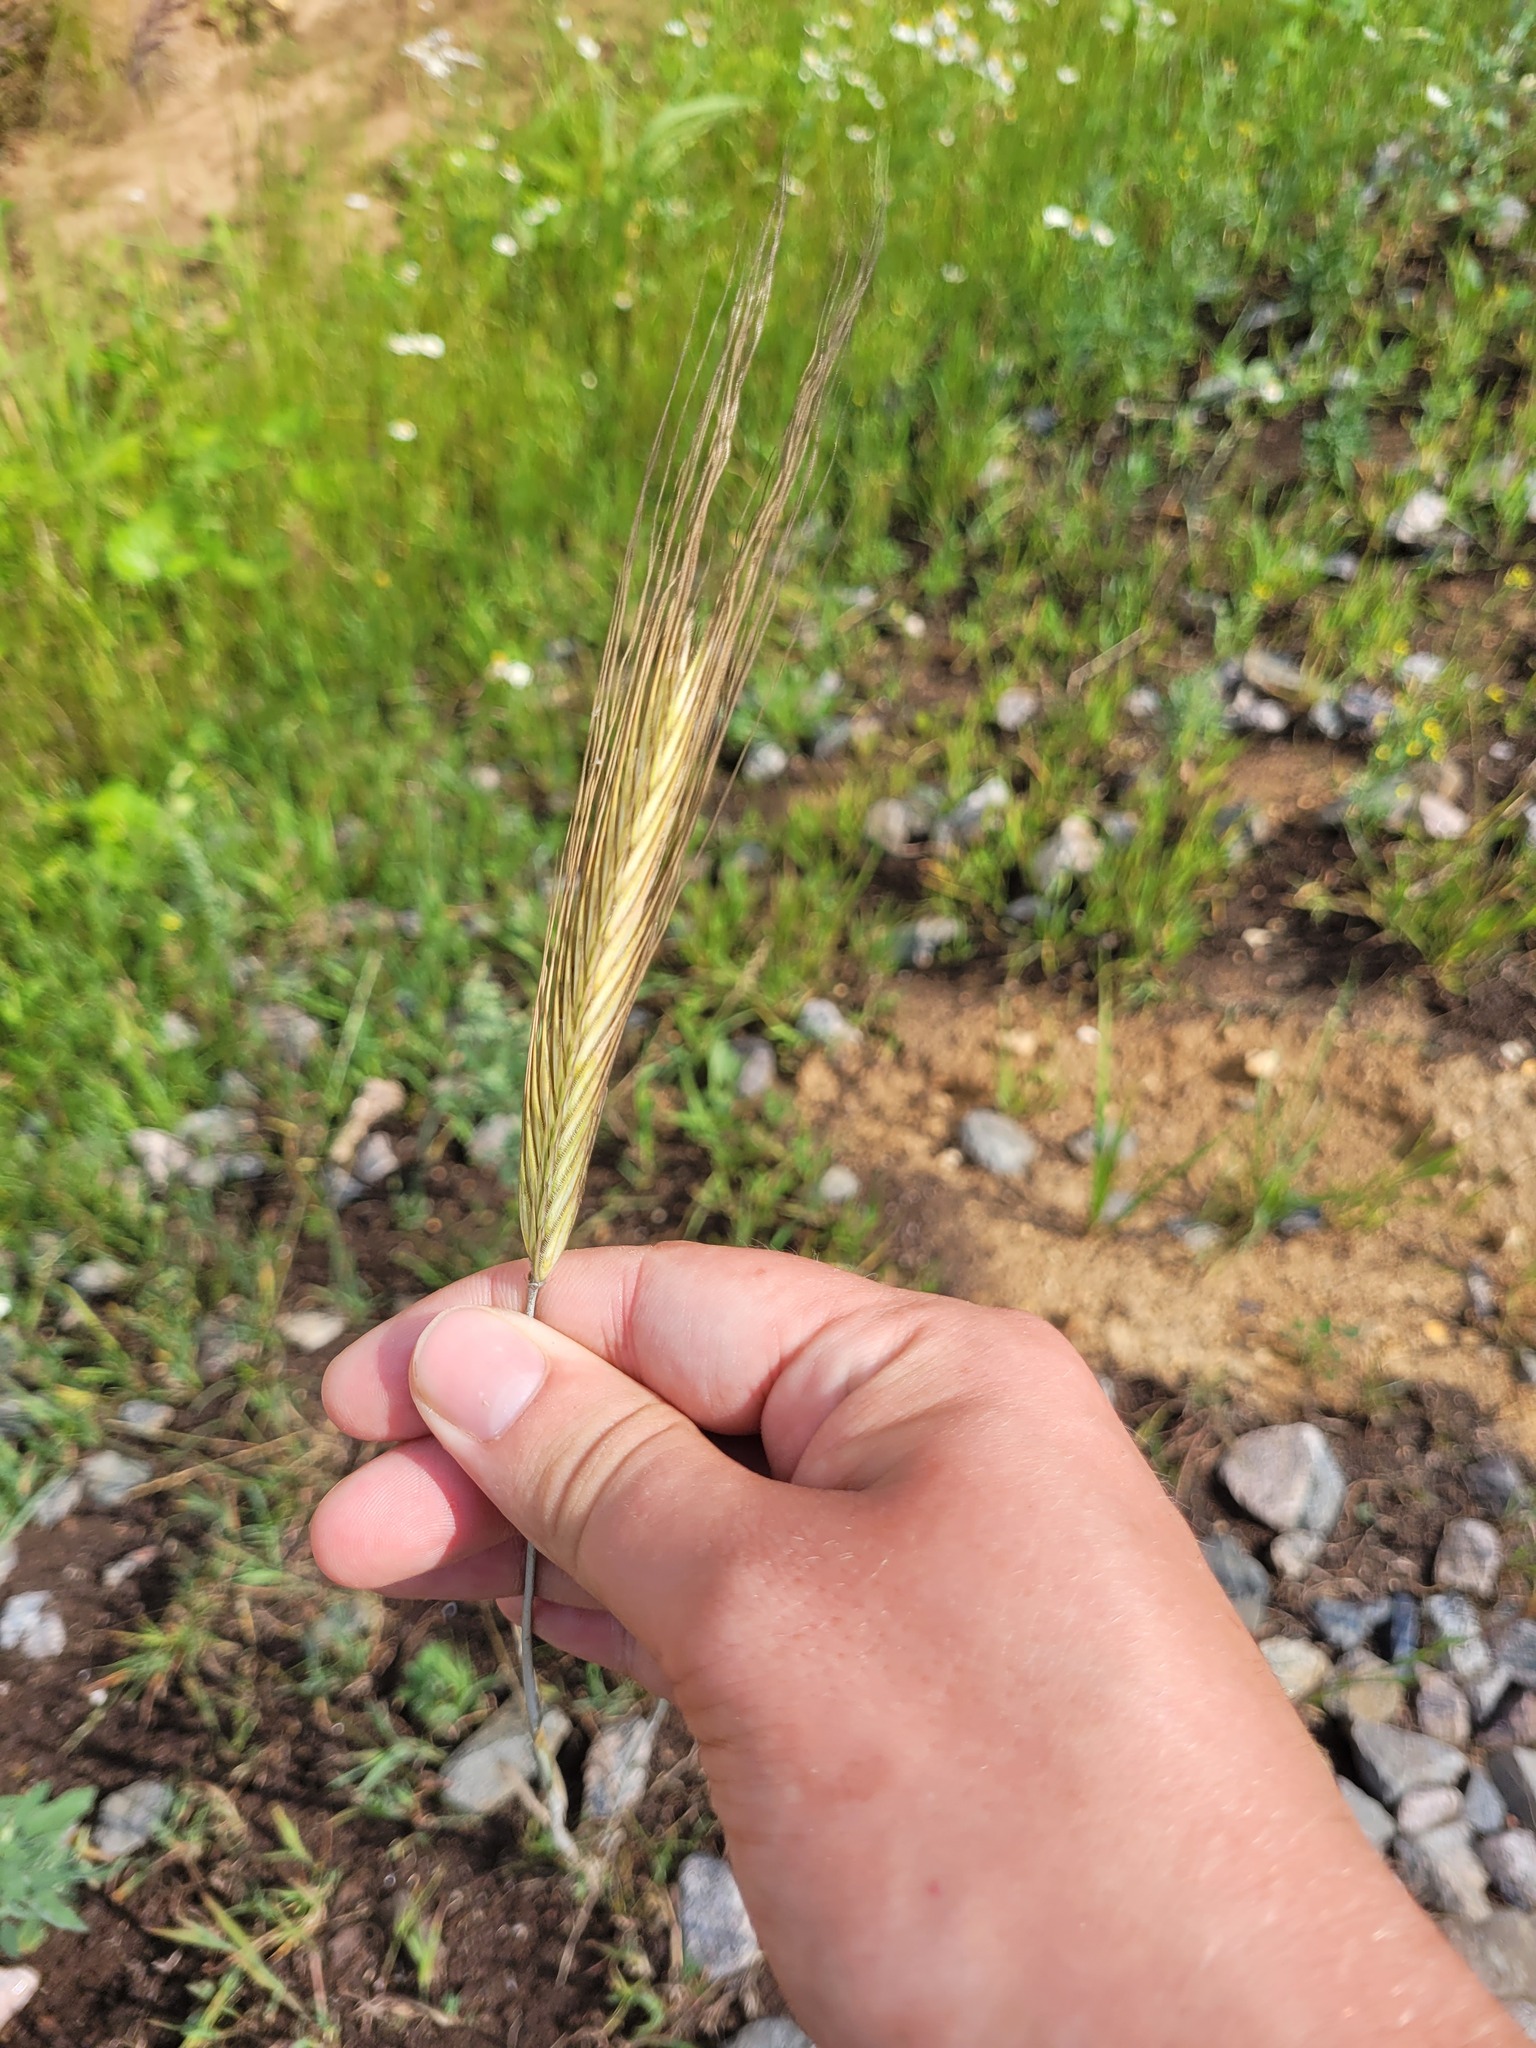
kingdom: Plantae
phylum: Tracheophyta
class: Liliopsida
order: Poales
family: Poaceae
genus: Secale
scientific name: Secale cereale
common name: Rye
